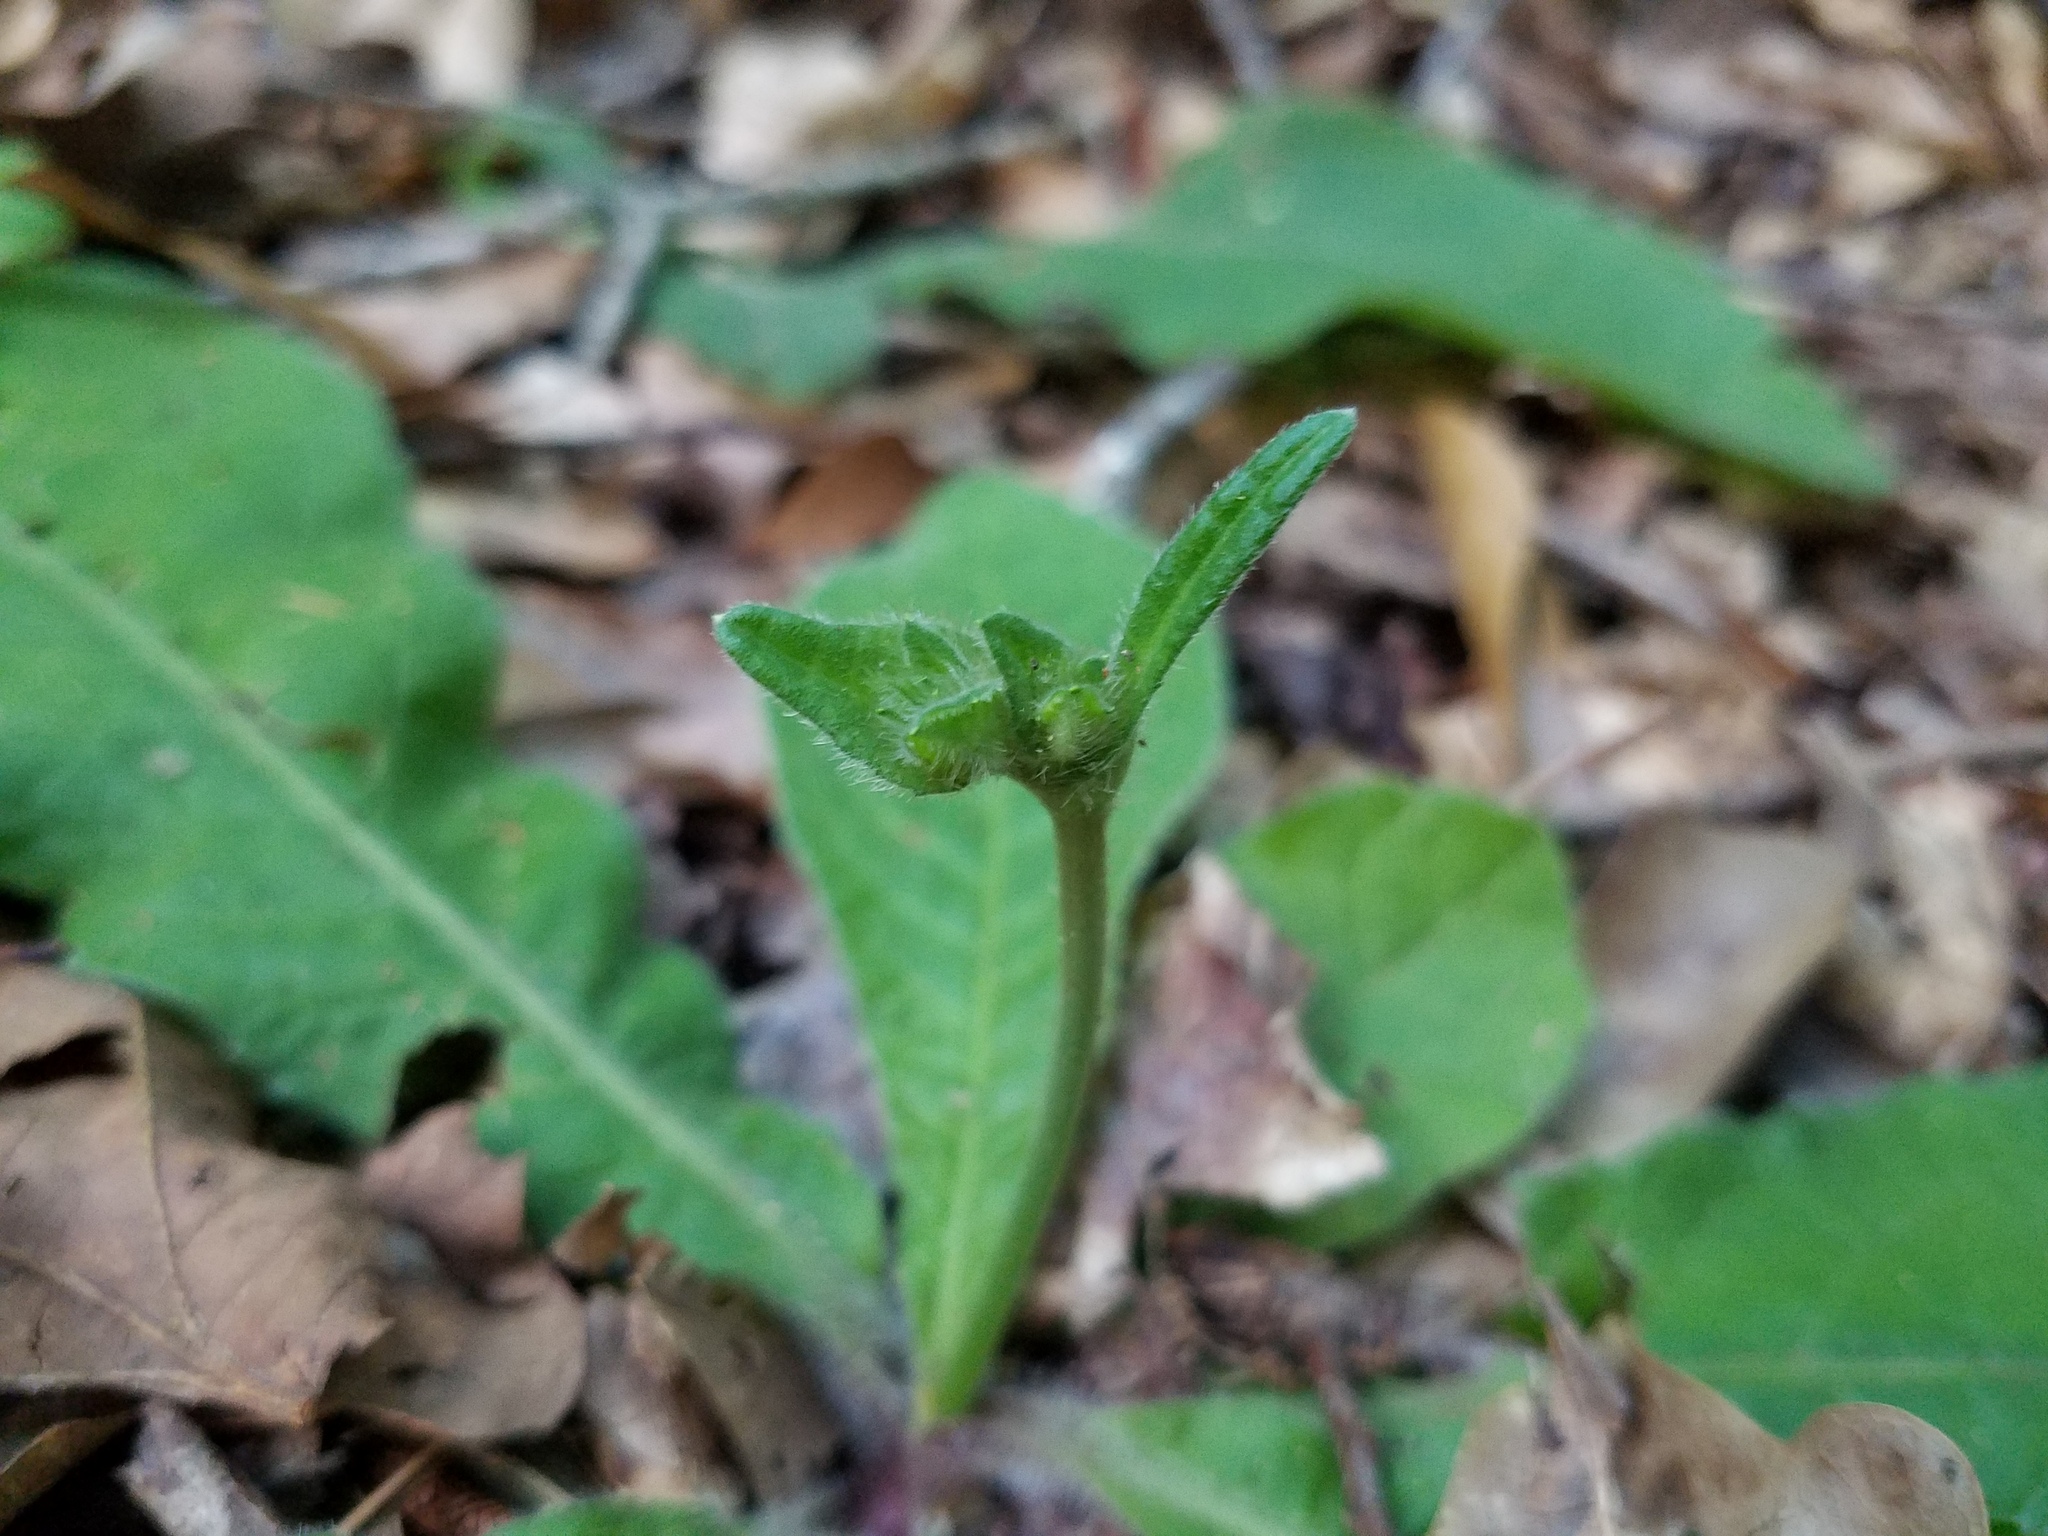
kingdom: Plantae
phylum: Tracheophyta
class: Magnoliopsida
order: Asterales
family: Asteraceae
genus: Elephantopus
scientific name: Elephantopus tomentosus
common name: Tobacco-weed
